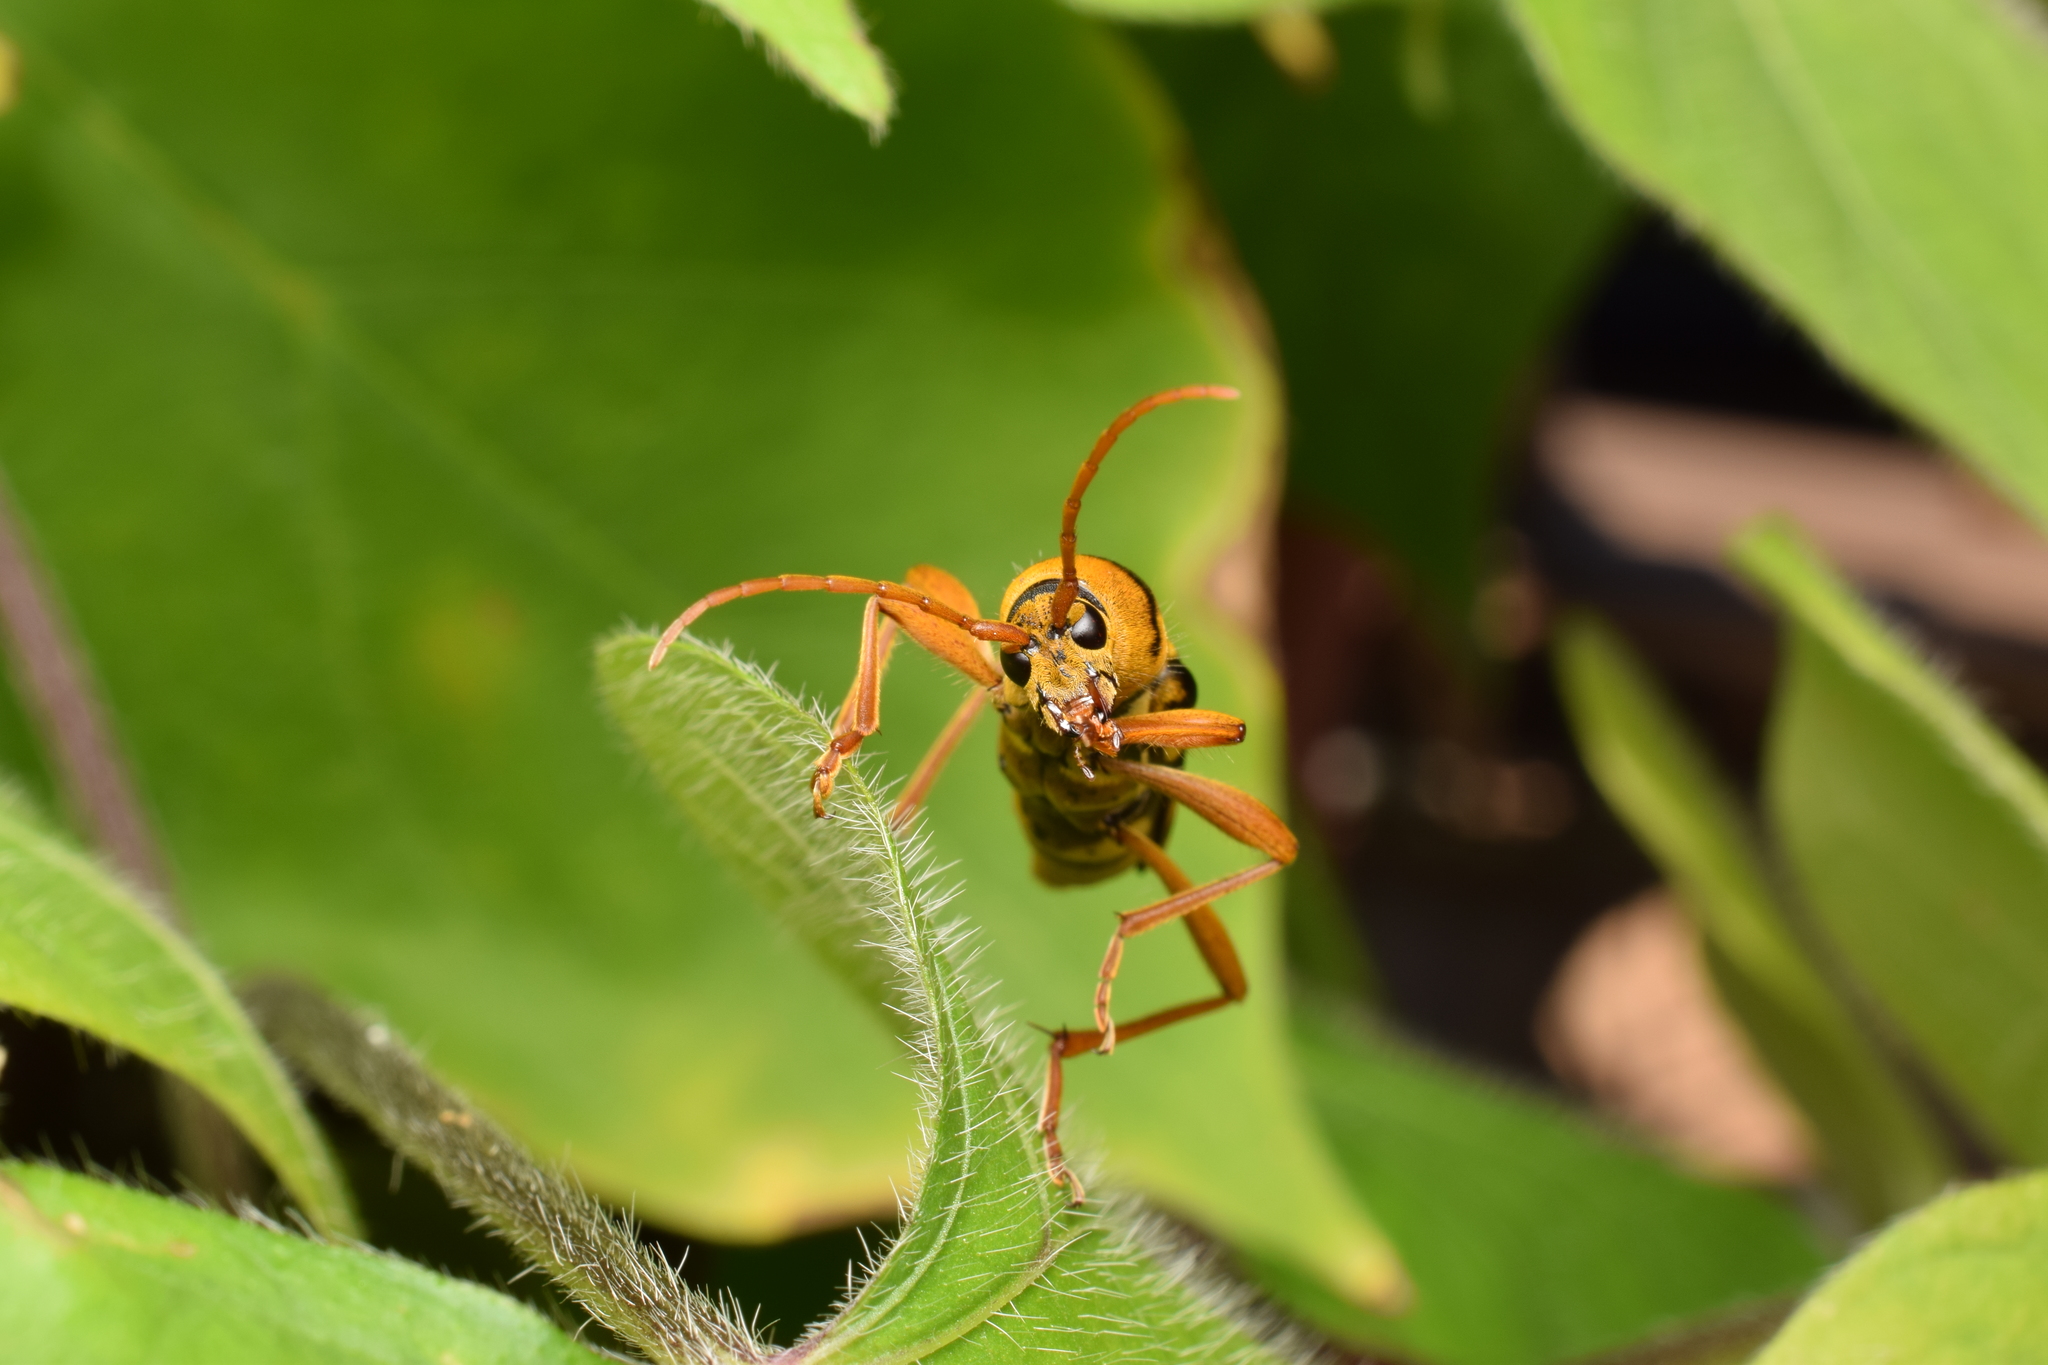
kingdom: Animalia
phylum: Arthropoda
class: Insecta
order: Coleoptera
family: Cerambycidae
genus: Chlorophorus
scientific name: Chlorophorus quinquefasciatus
